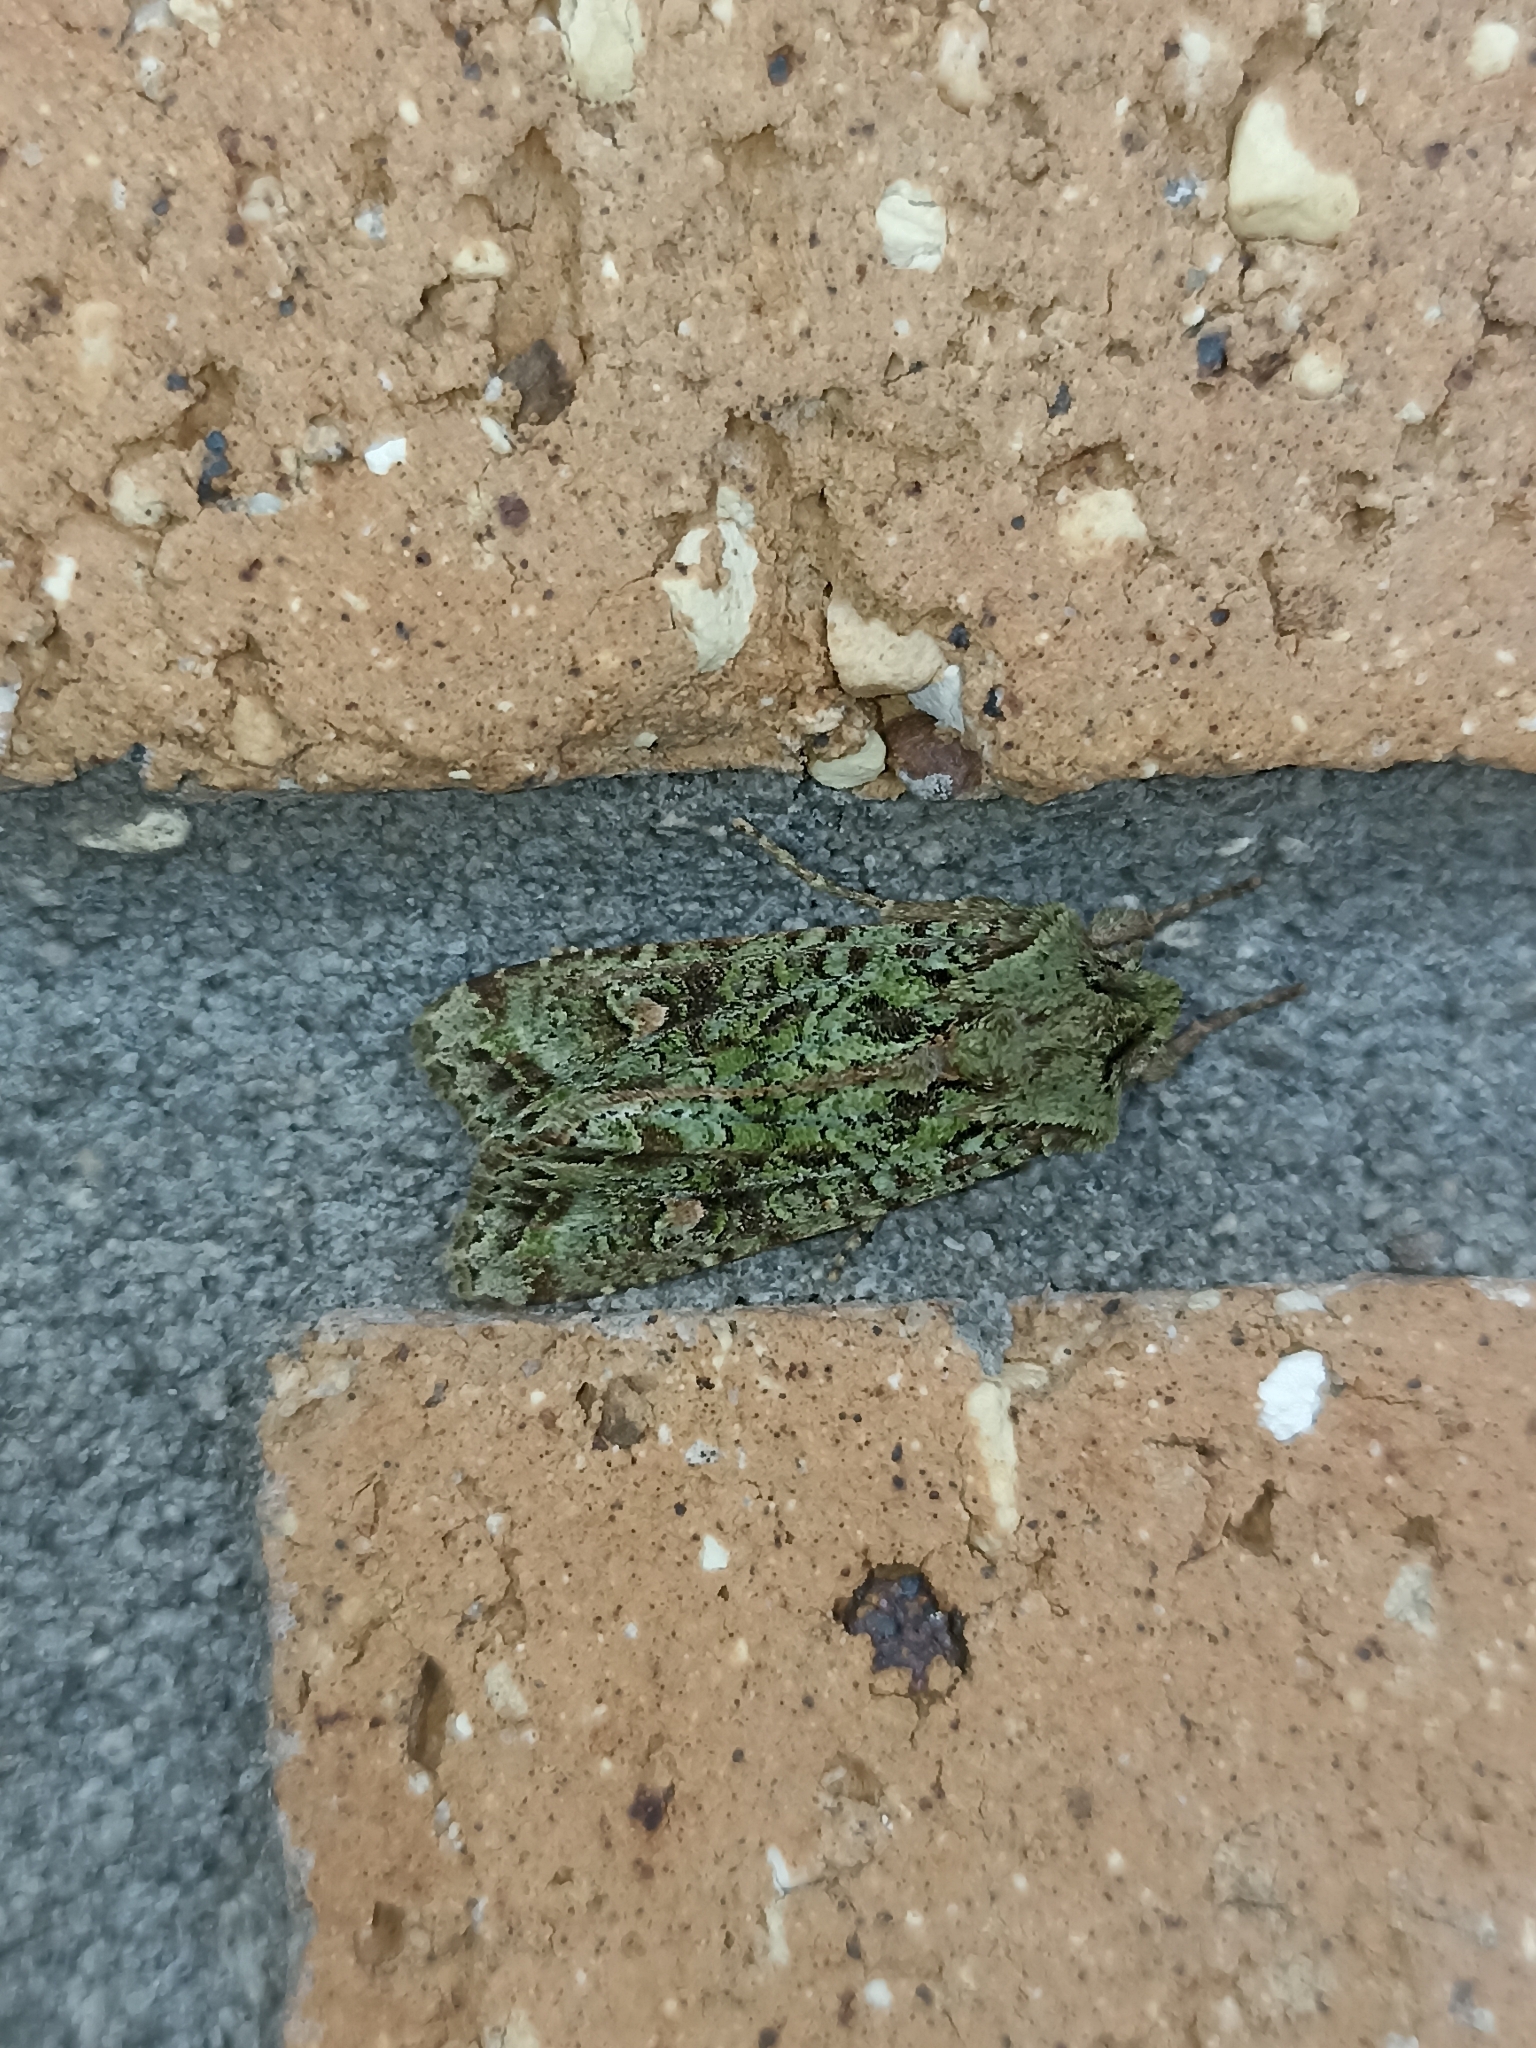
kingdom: Animalia
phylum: Arthropoda
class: Insecta
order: Lepidoptera
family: Noctuidae
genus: Ichneutica
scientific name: Ichneutica
